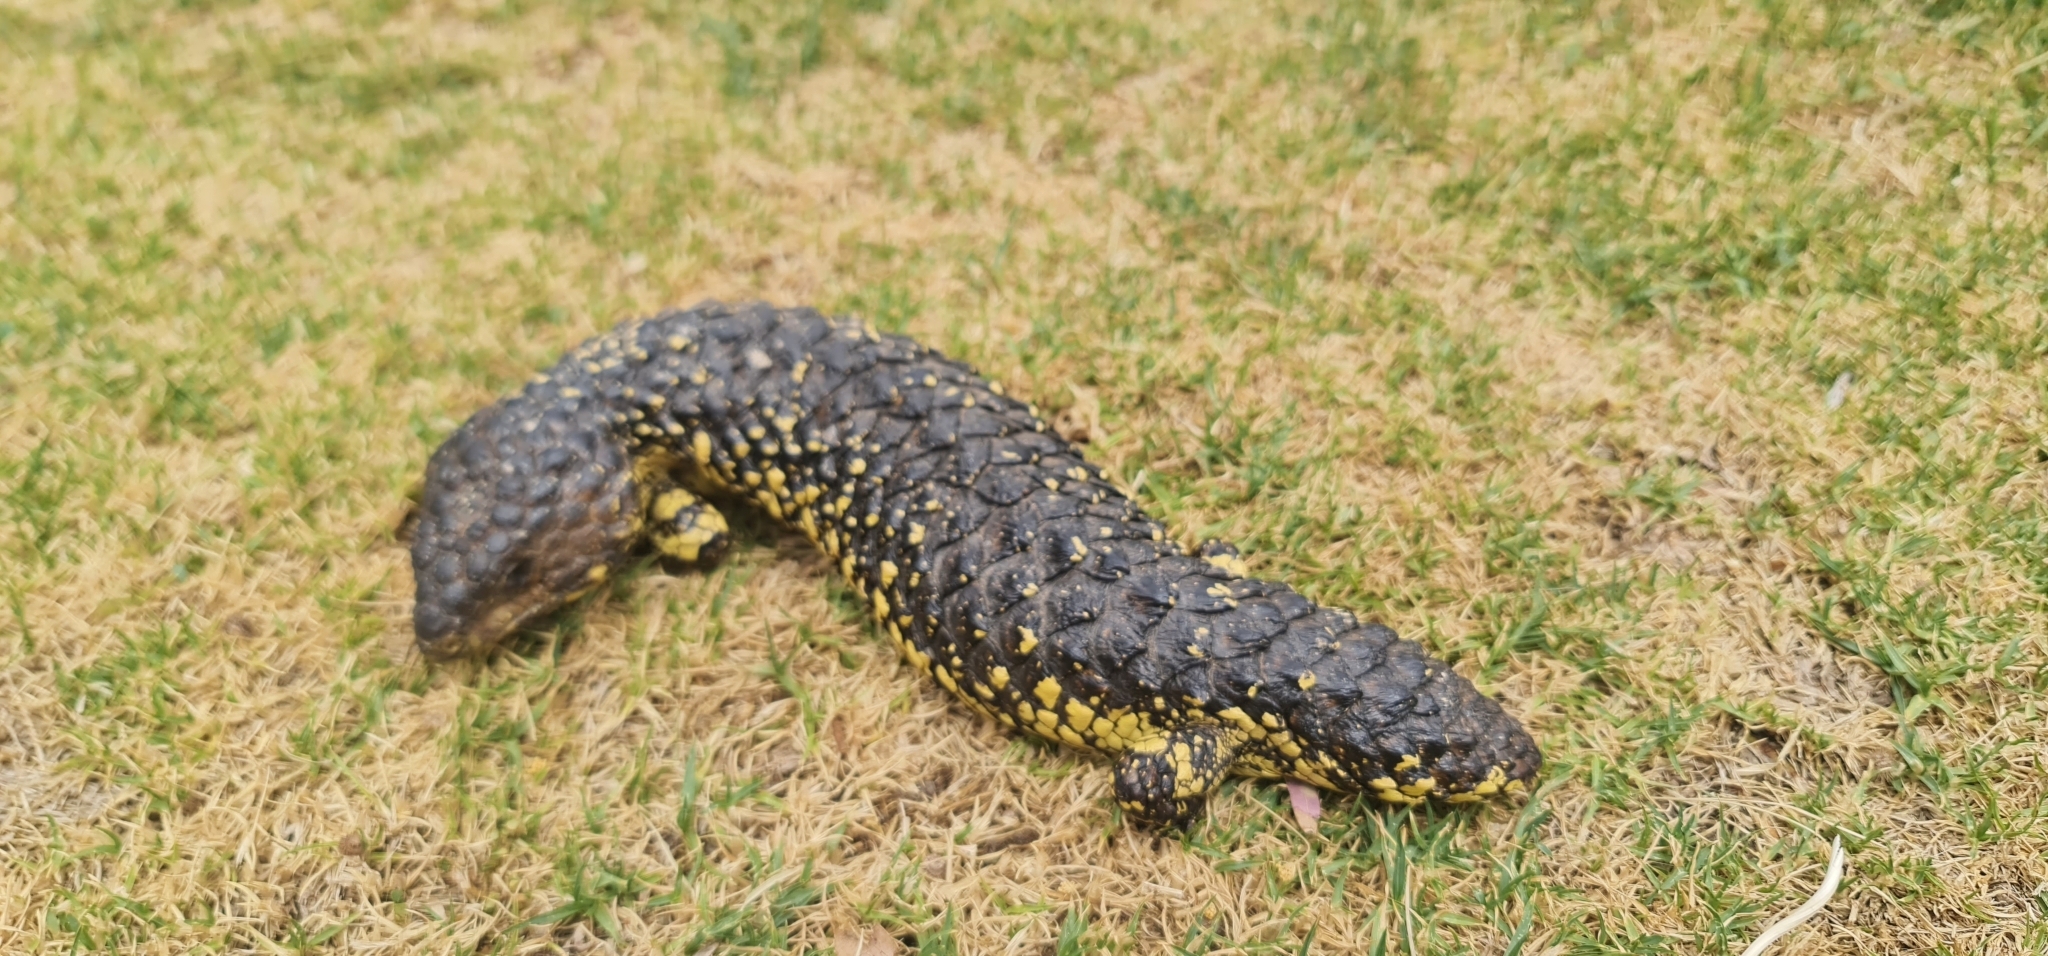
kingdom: Animalia
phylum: Chordata
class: Squamata
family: Scincidae
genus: Tiliqua
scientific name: Tiliqua rugosa
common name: Pinecone lizard
